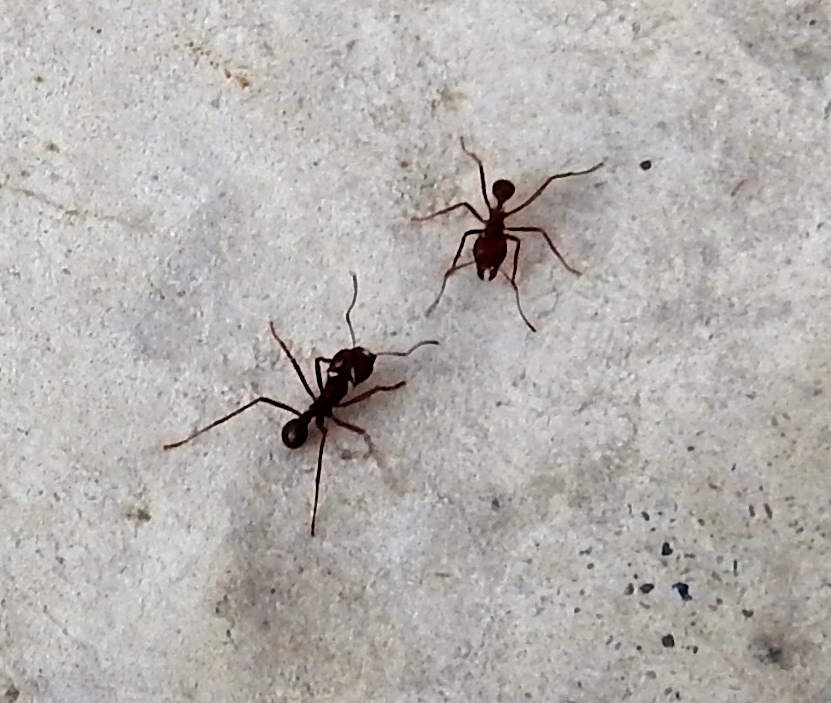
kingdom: Animalia
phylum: Arthropoda
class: Insecta
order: Hymenoptera
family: Formicidae
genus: Atta
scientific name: Atta mexicana
